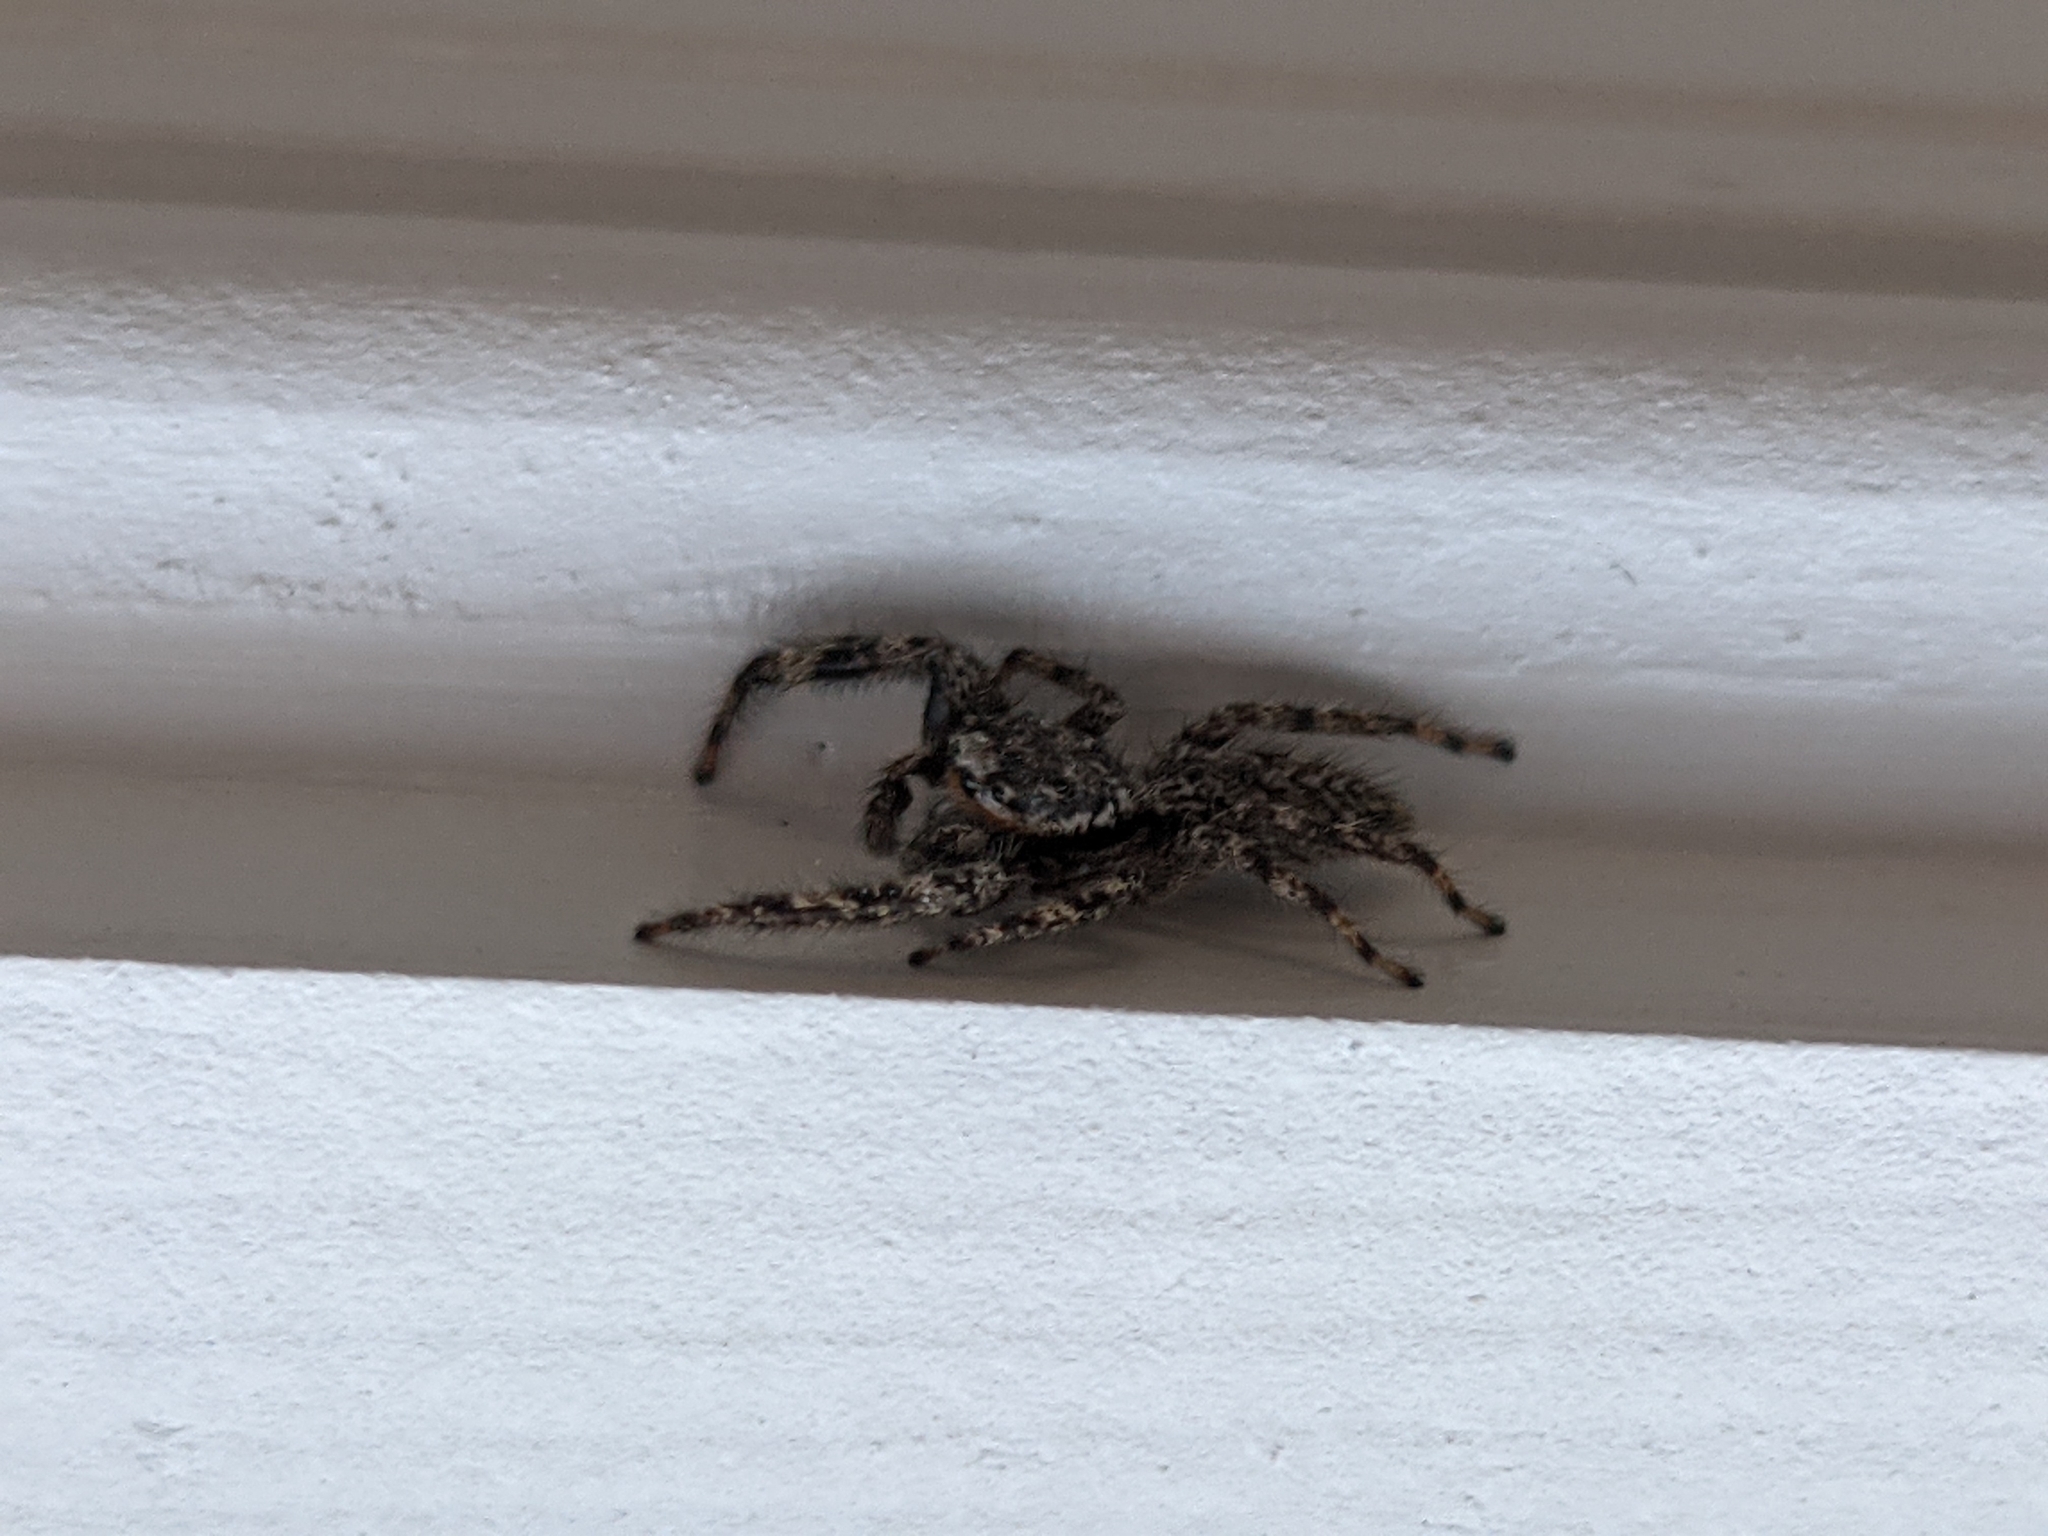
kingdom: Animalia
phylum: Arthropoda
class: Arachnida
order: Araneae
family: Salticidae
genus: Platycryptus
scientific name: Platycryptus undatus
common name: Tan jumping spider
